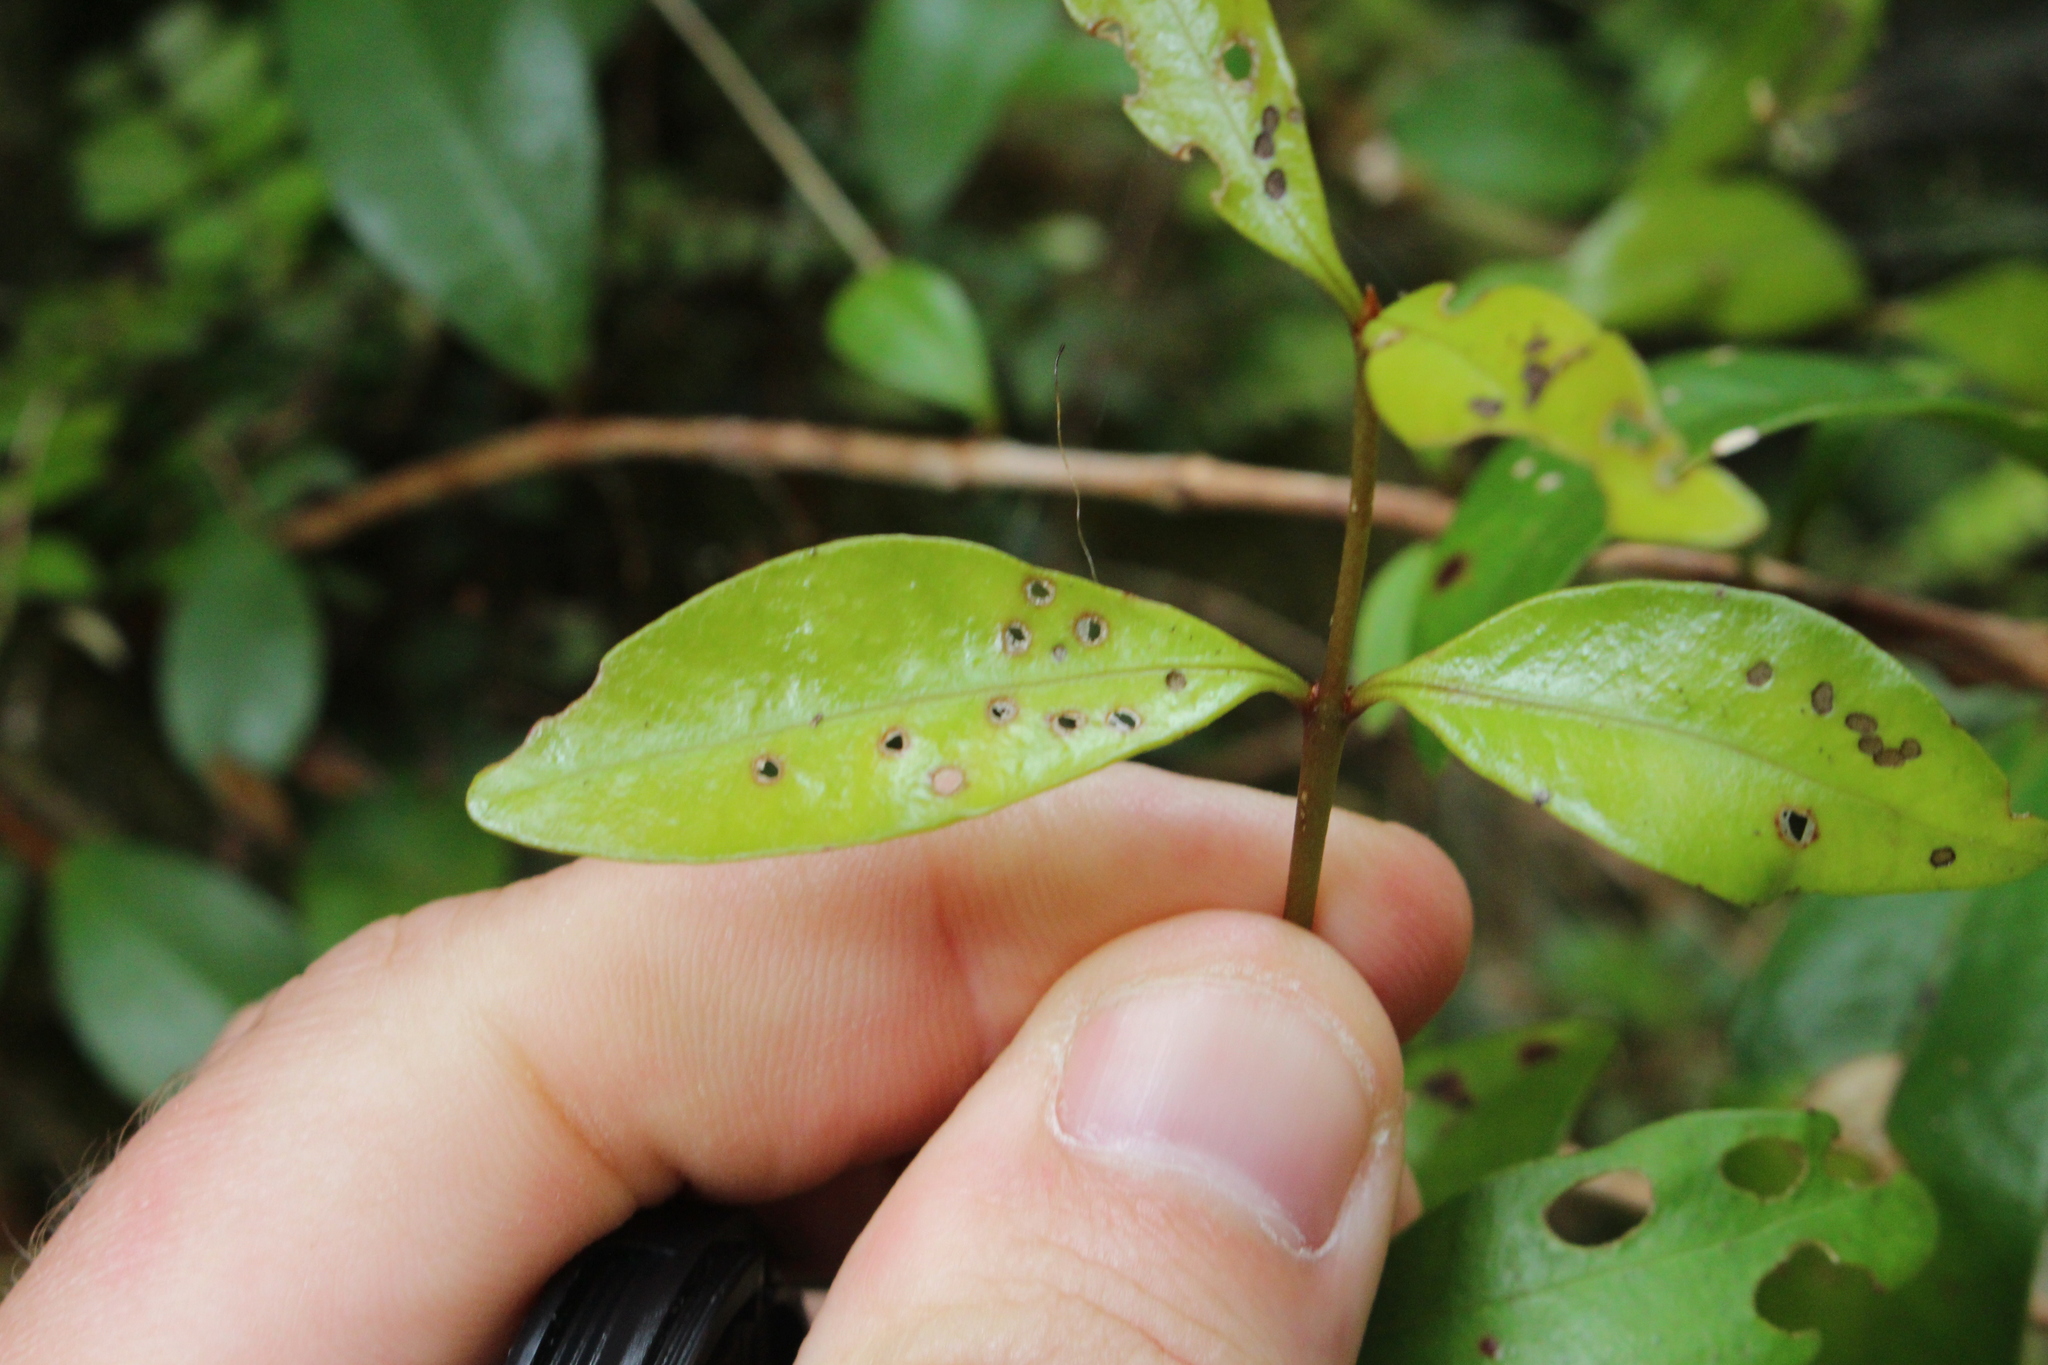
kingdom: Plantae
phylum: Tracheophyta
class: Magnoliopsida
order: Myrtales
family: Myrtaceae
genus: Metrosideros
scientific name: Metrosideros fulgens
